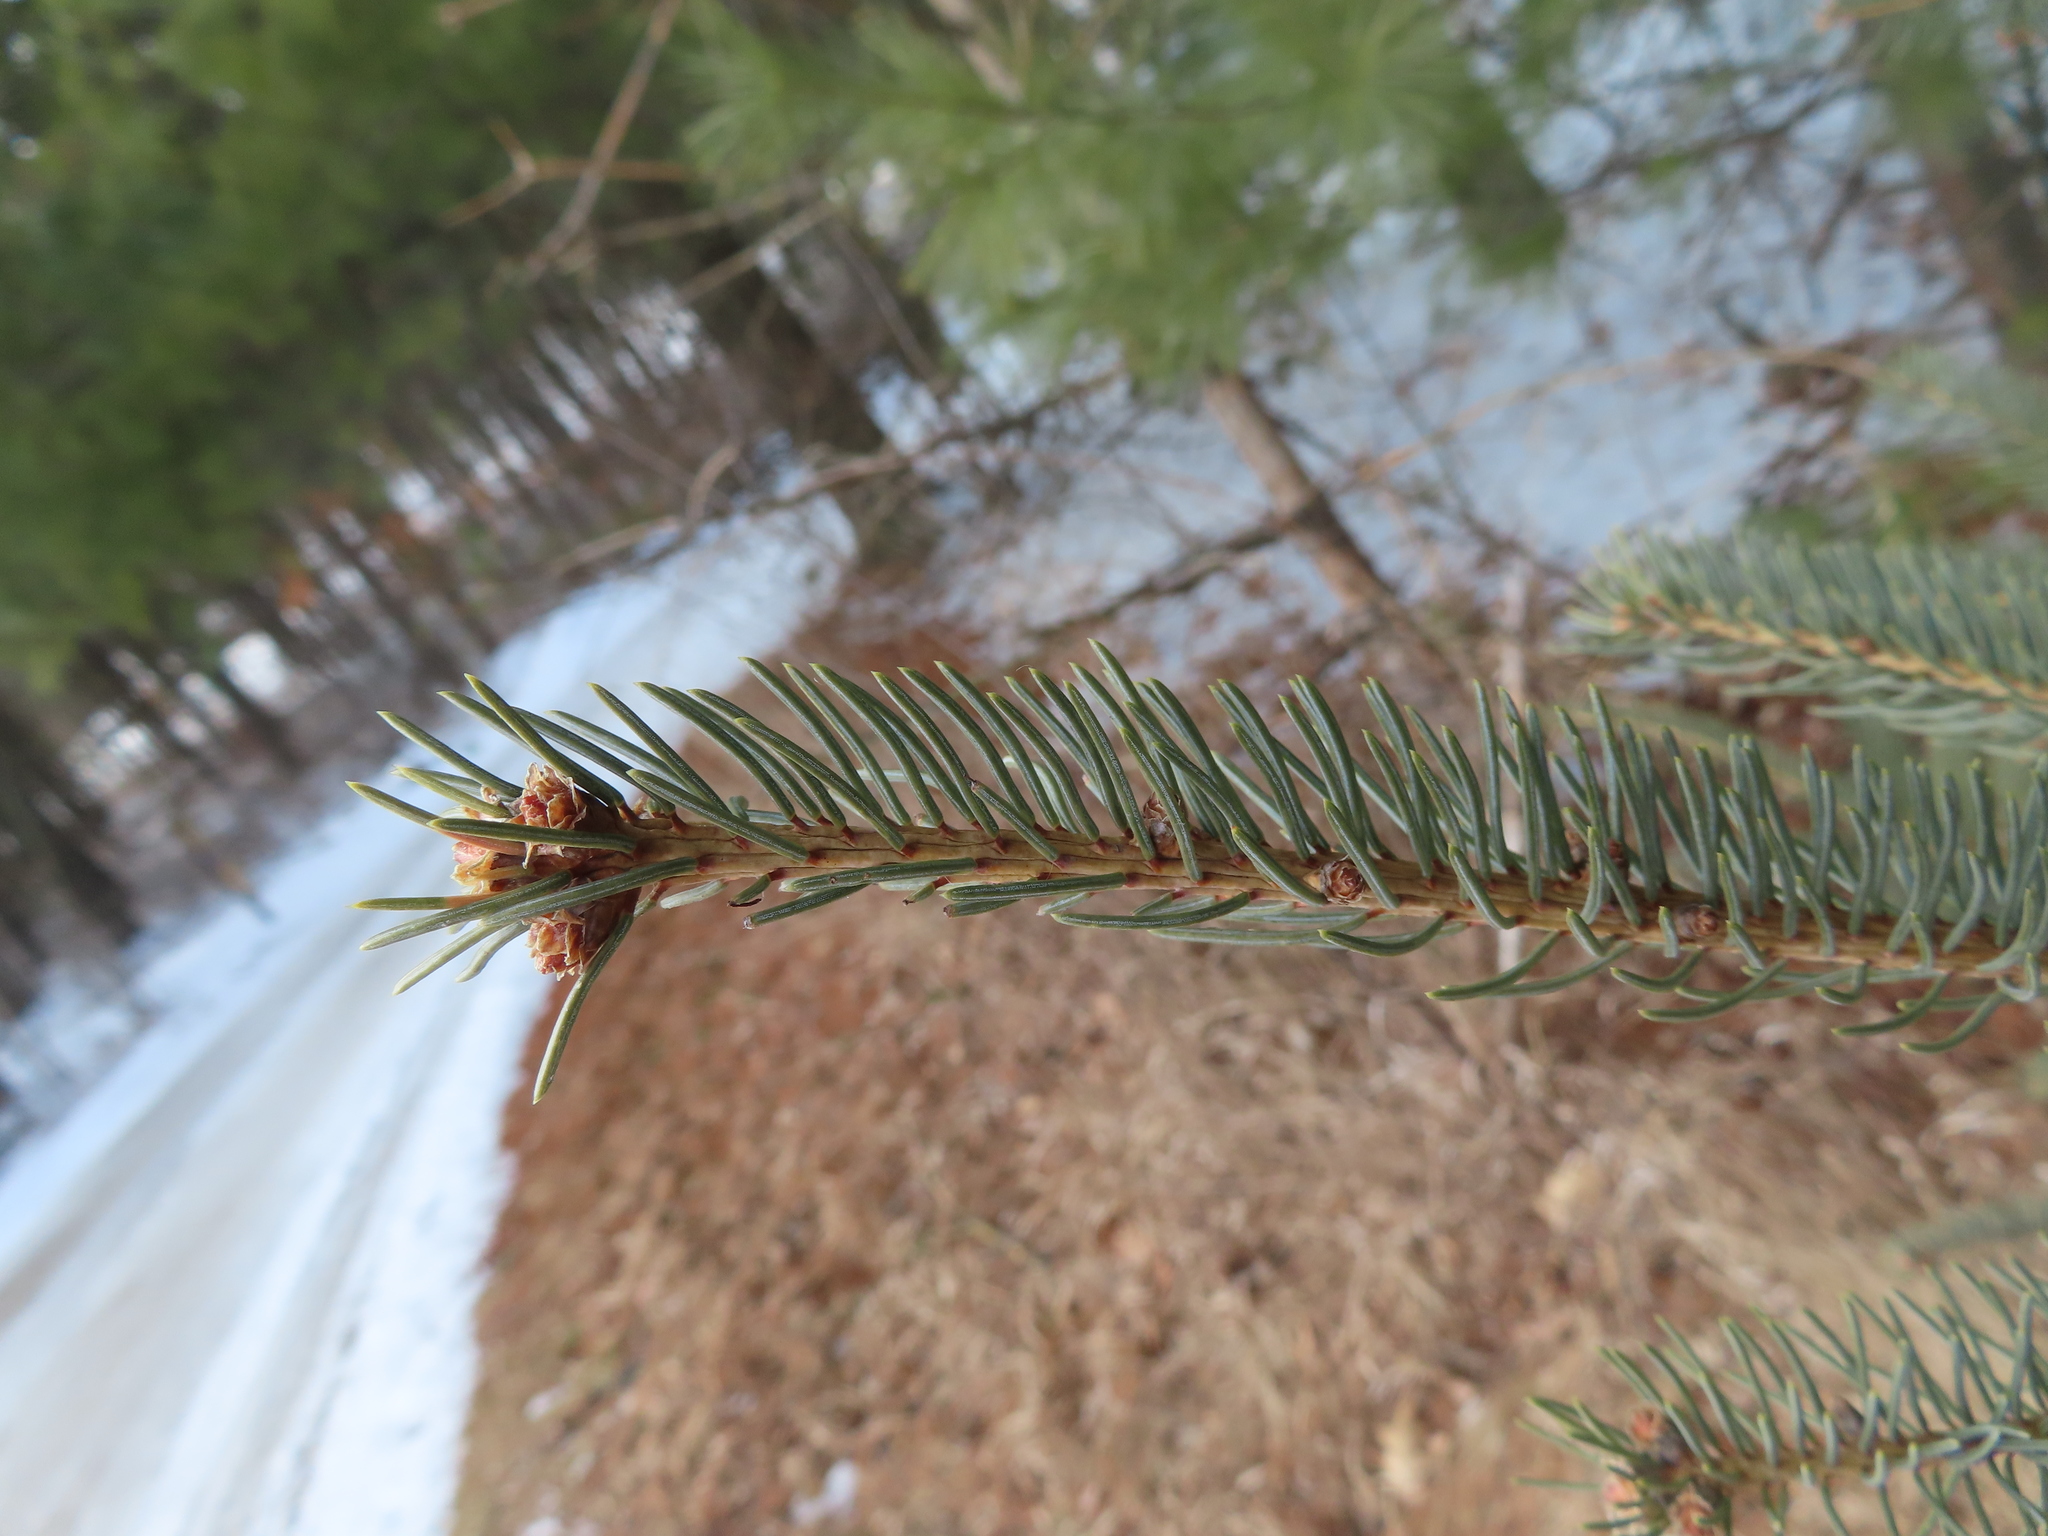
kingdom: Plantae
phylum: Tracheophyta
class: Pinopsida
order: Pinales
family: Pinaceae
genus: Picea
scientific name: Picea glauca
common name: White spruce
